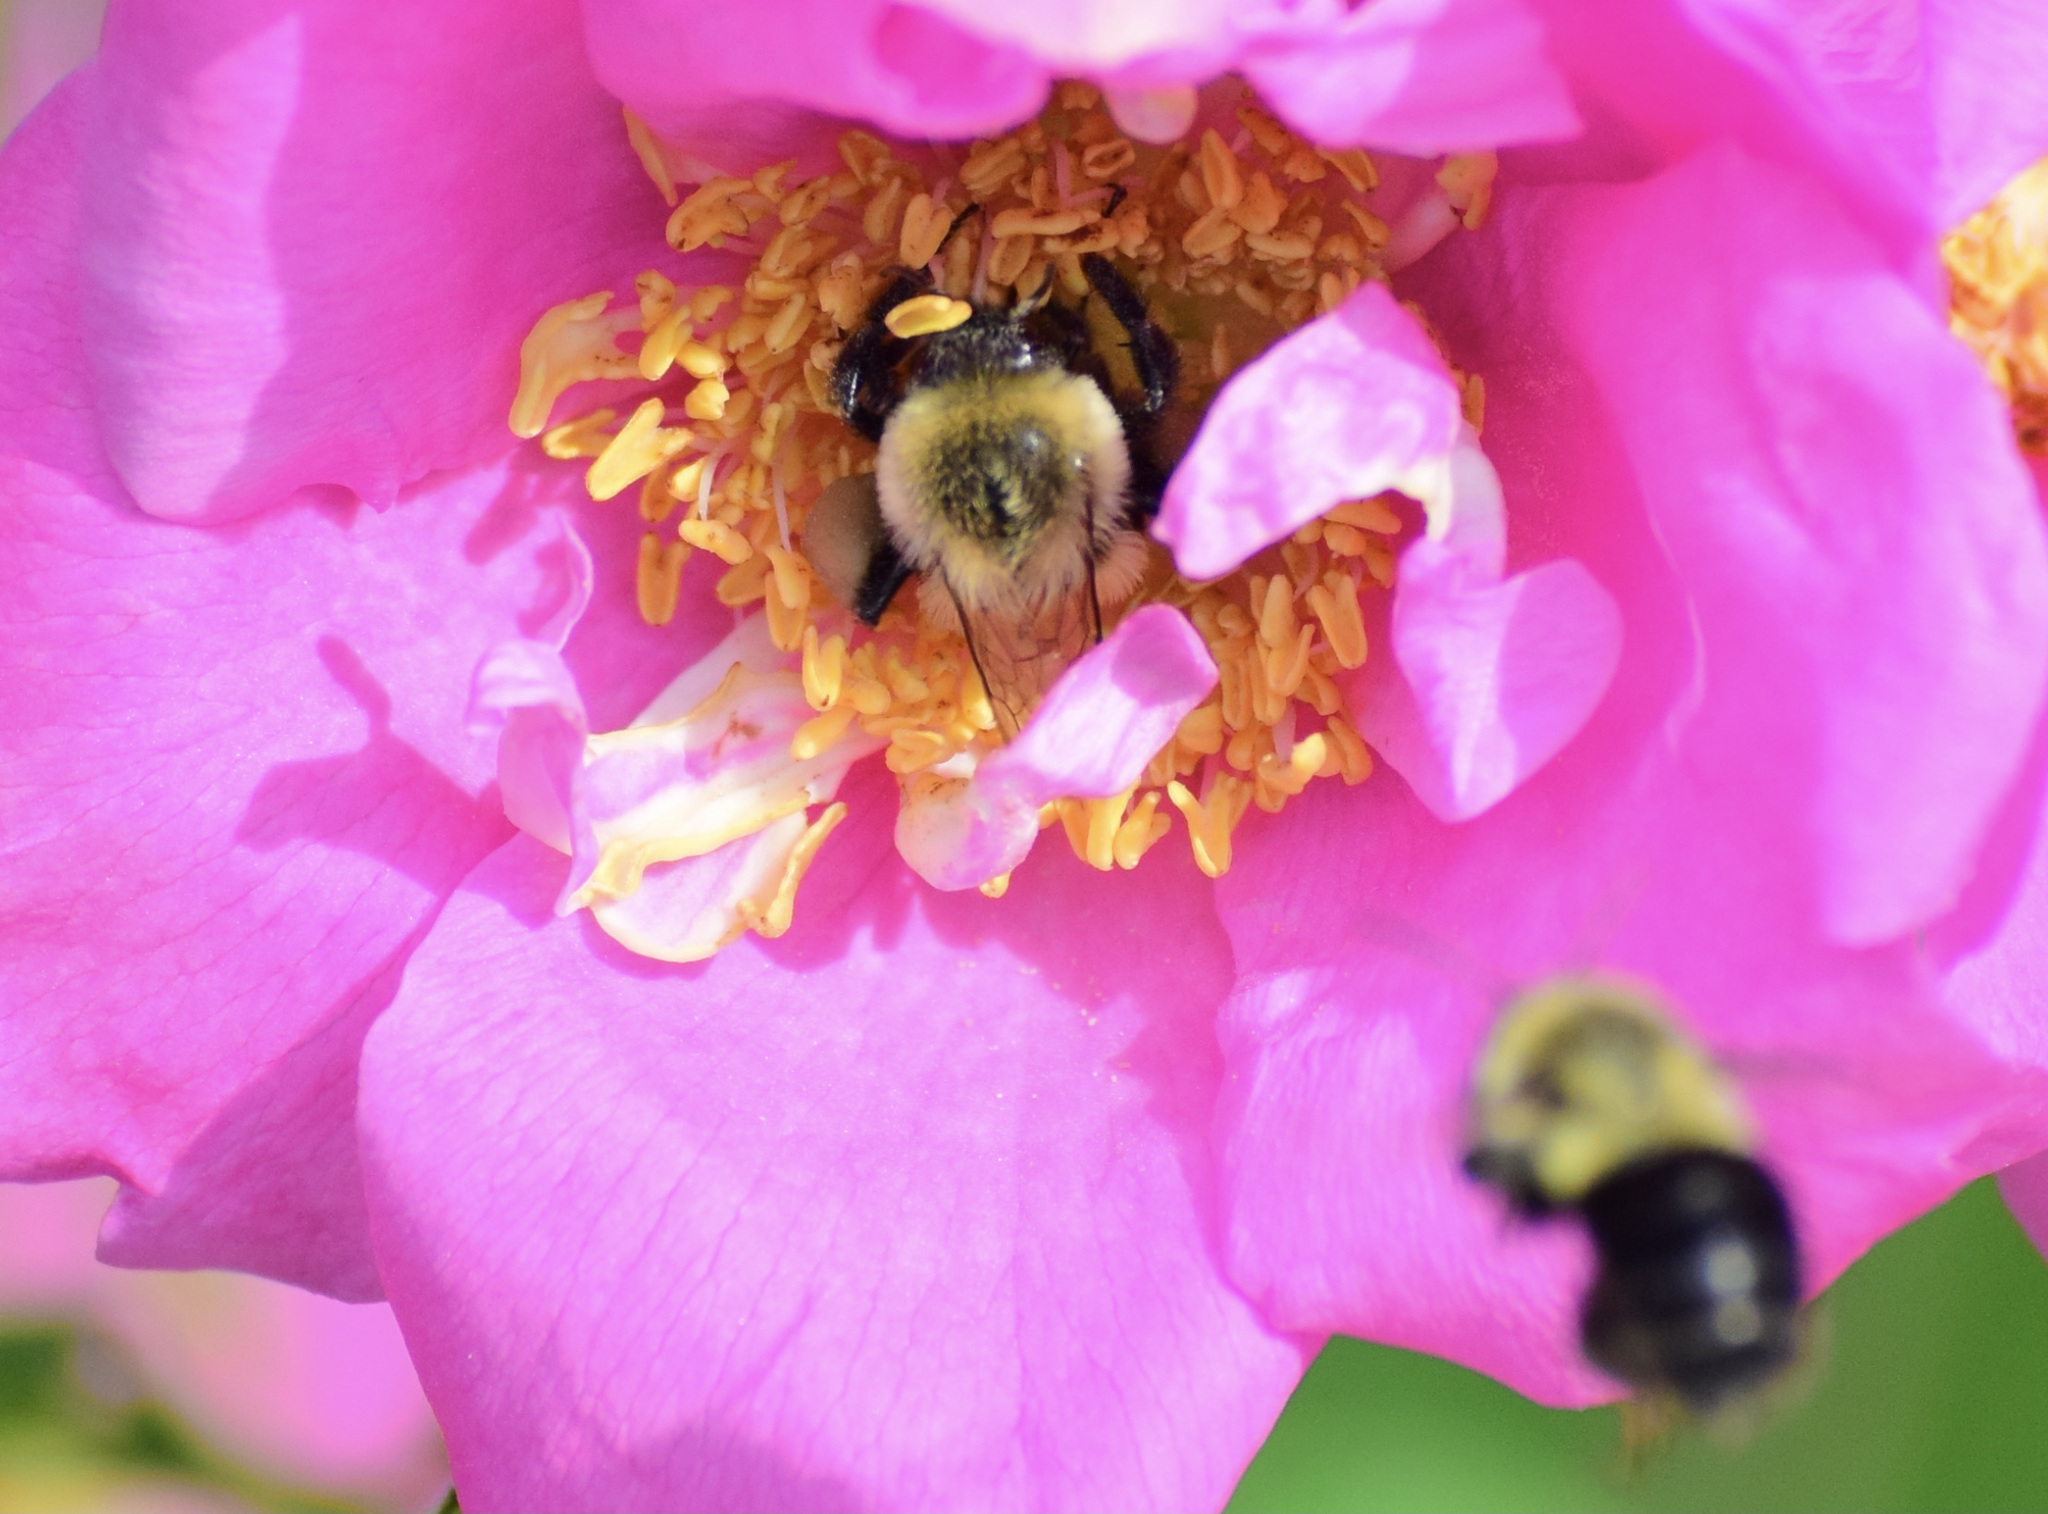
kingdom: Animalia
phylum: Arthropoda
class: Insecta
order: Hymenoptera
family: Apidae
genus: Bombus
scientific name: Bombus impatiens
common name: Common eastern bumble bee
